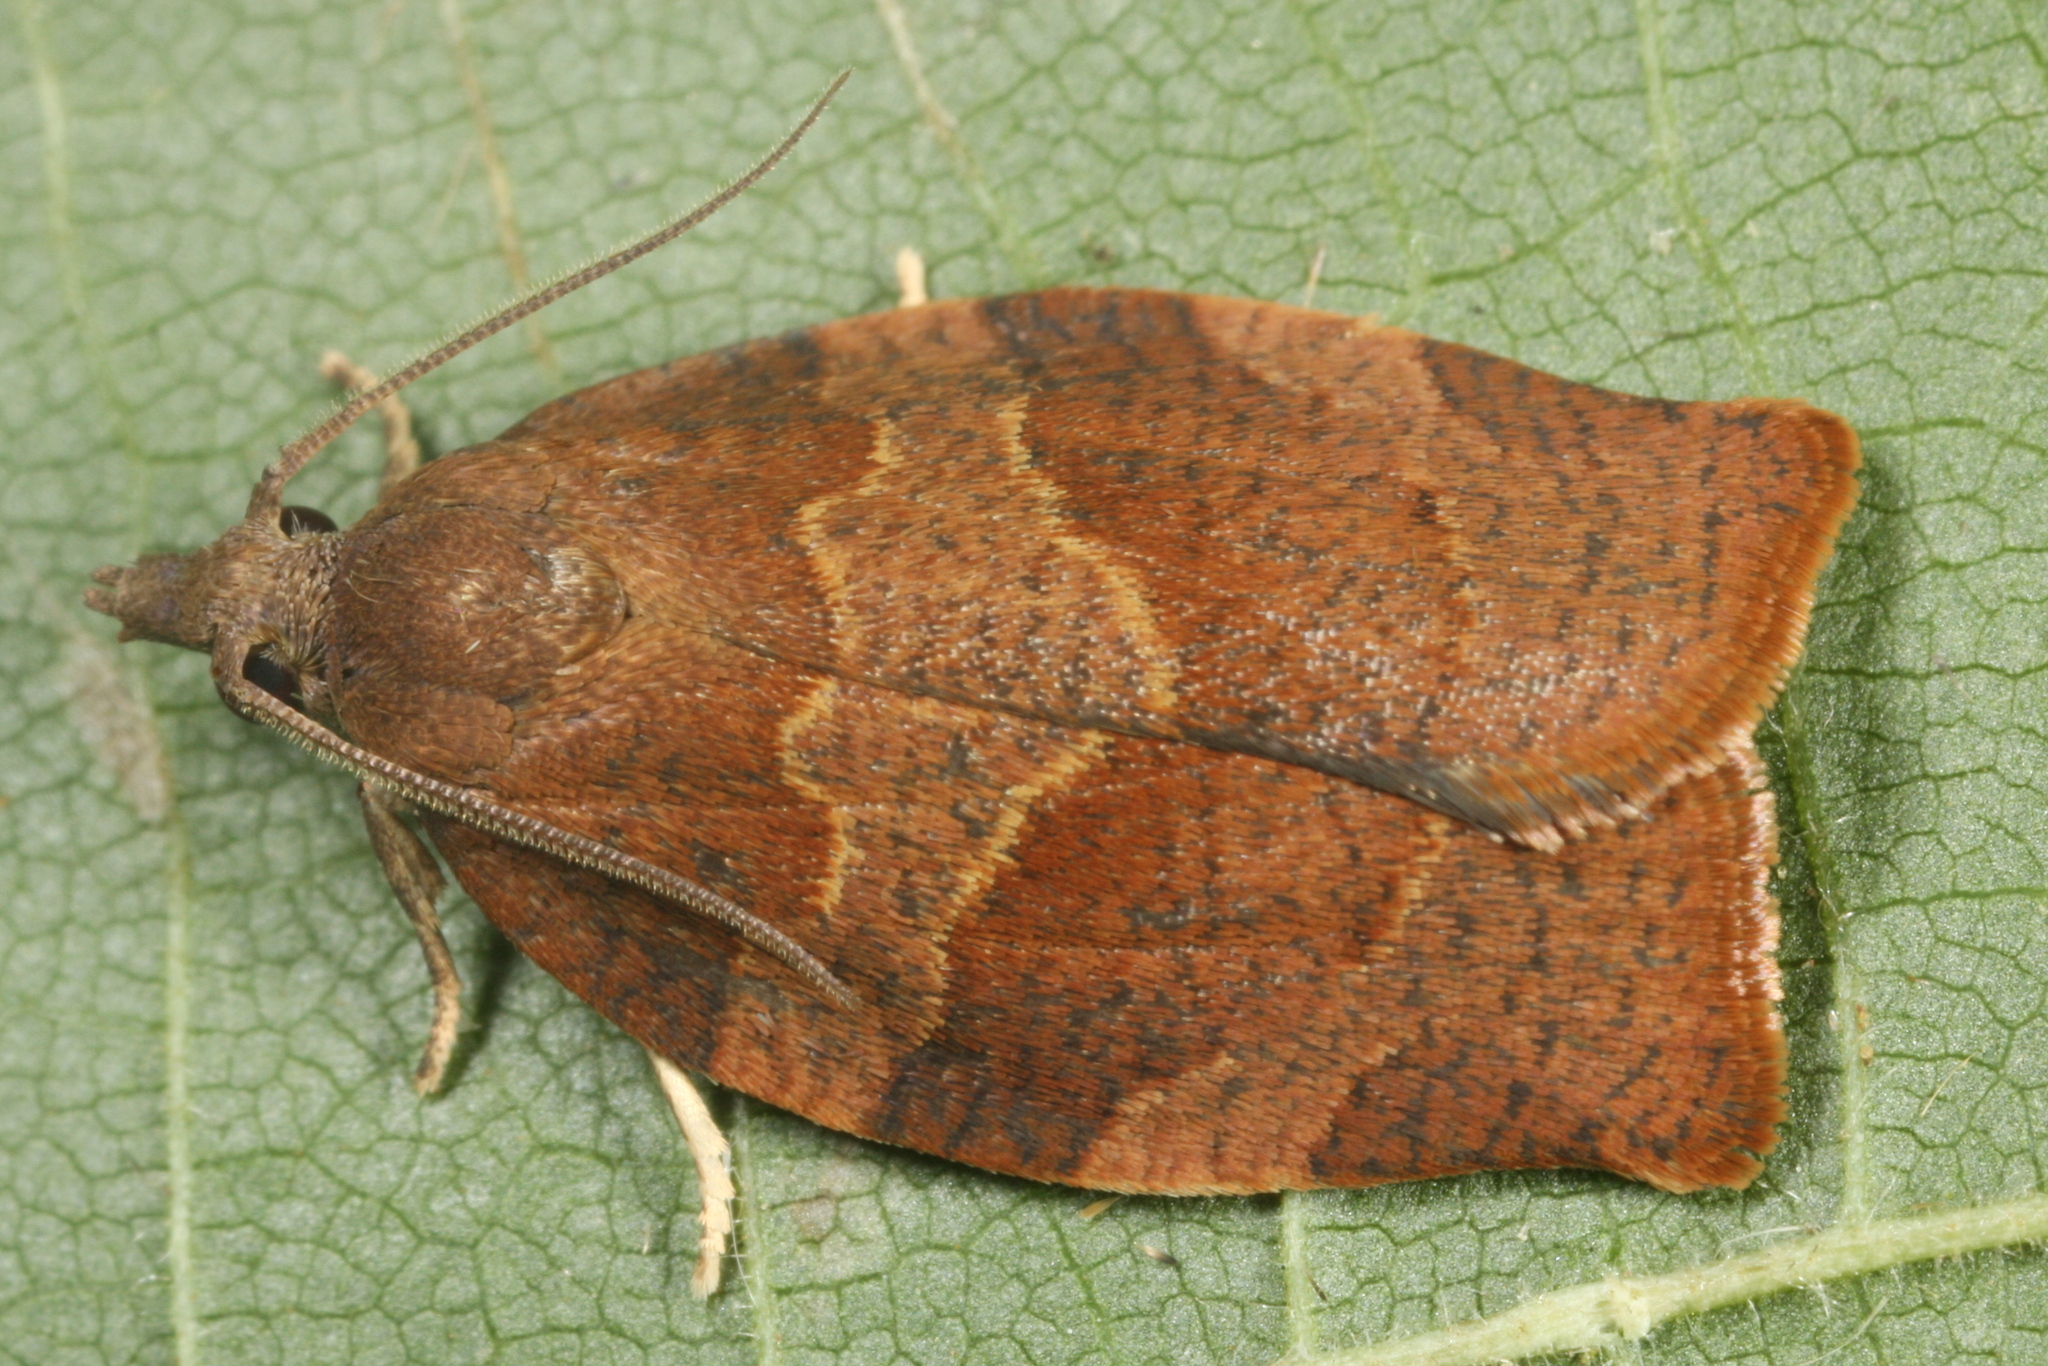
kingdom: Animalia
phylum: Arthropoda
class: Insecta
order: Lepidoptera
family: Tortricidae
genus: Pandemis
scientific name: Pandemis heparana
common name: Dark fruit-tree tortrix
